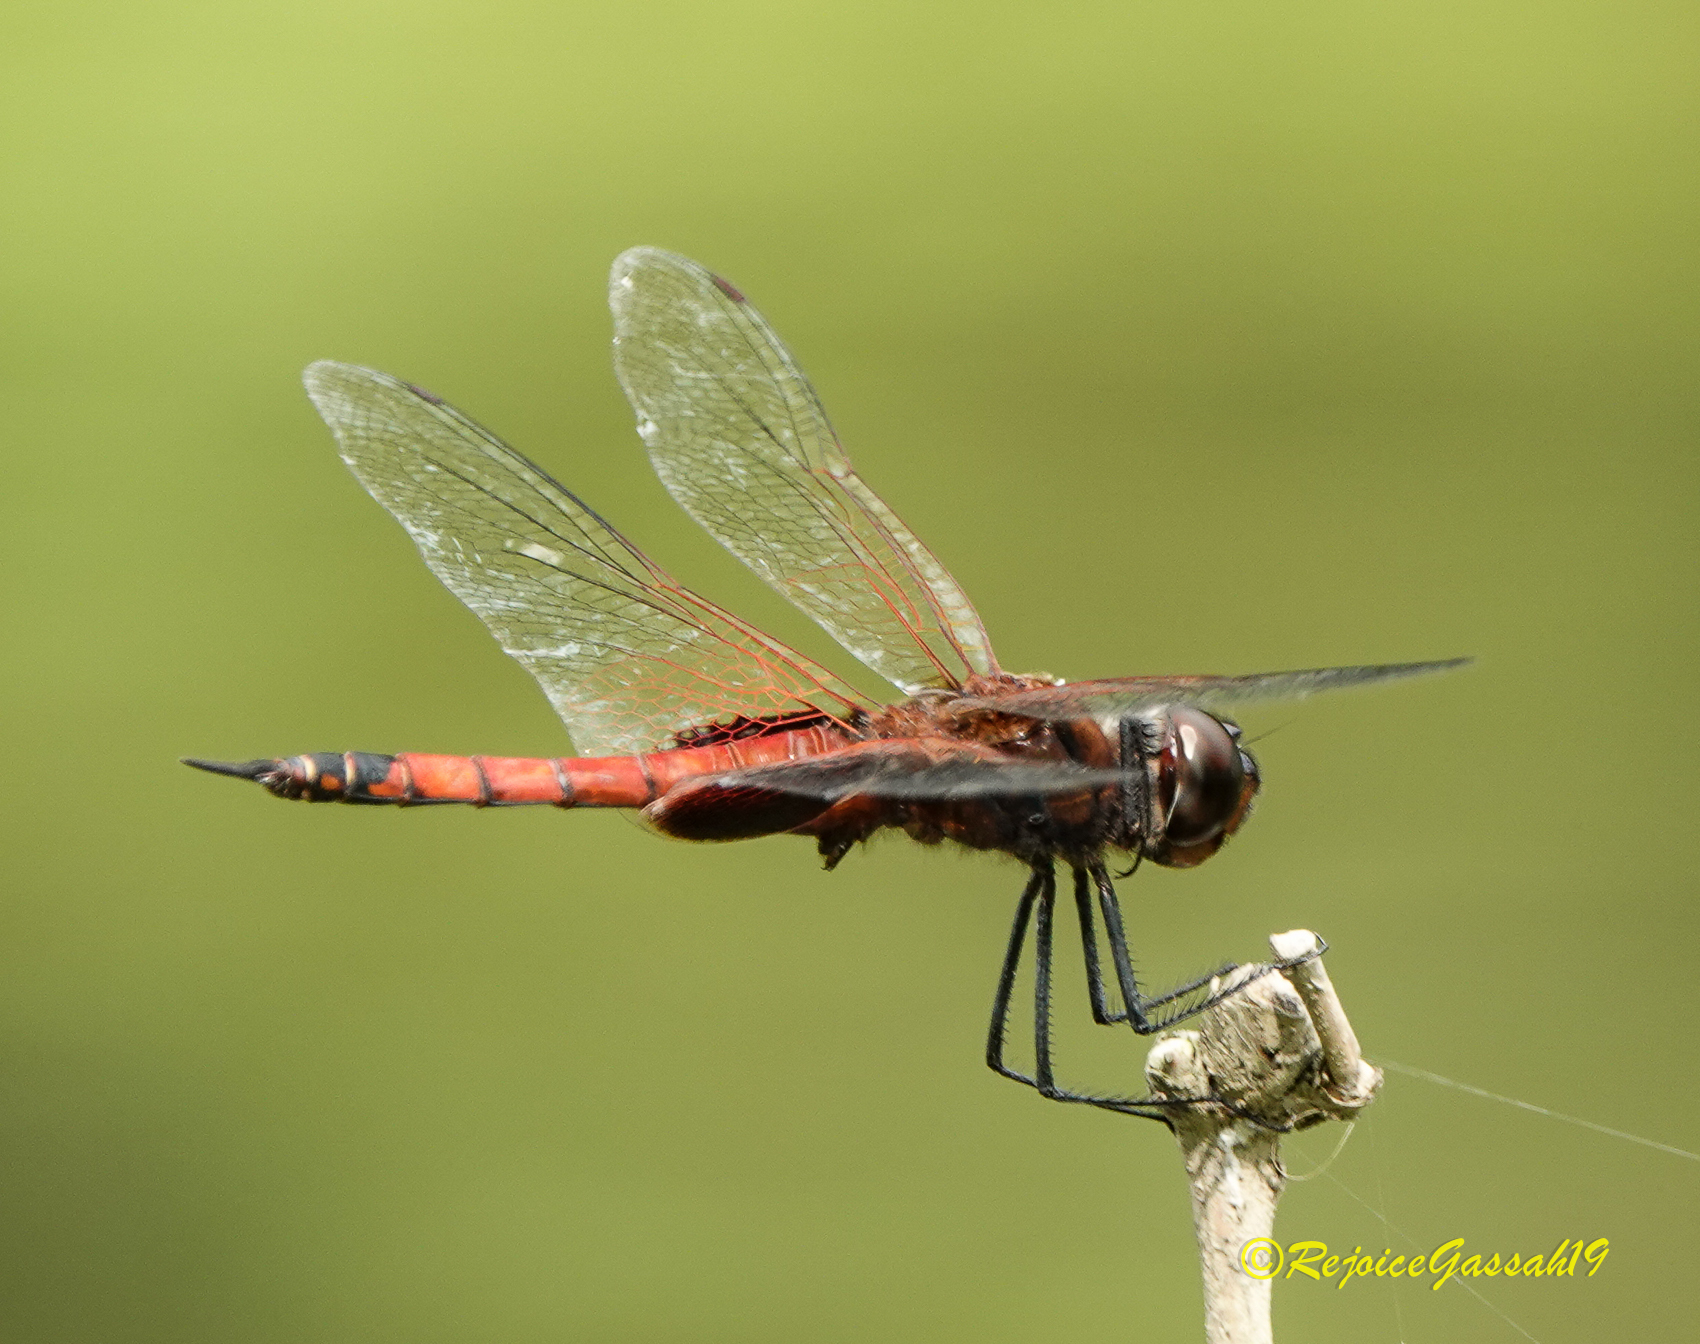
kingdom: Animalia
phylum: Arthropoda
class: Insecta
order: Odonata
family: Libellulidae
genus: Tramea
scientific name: Tramea limbata
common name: Ferruginous glider
